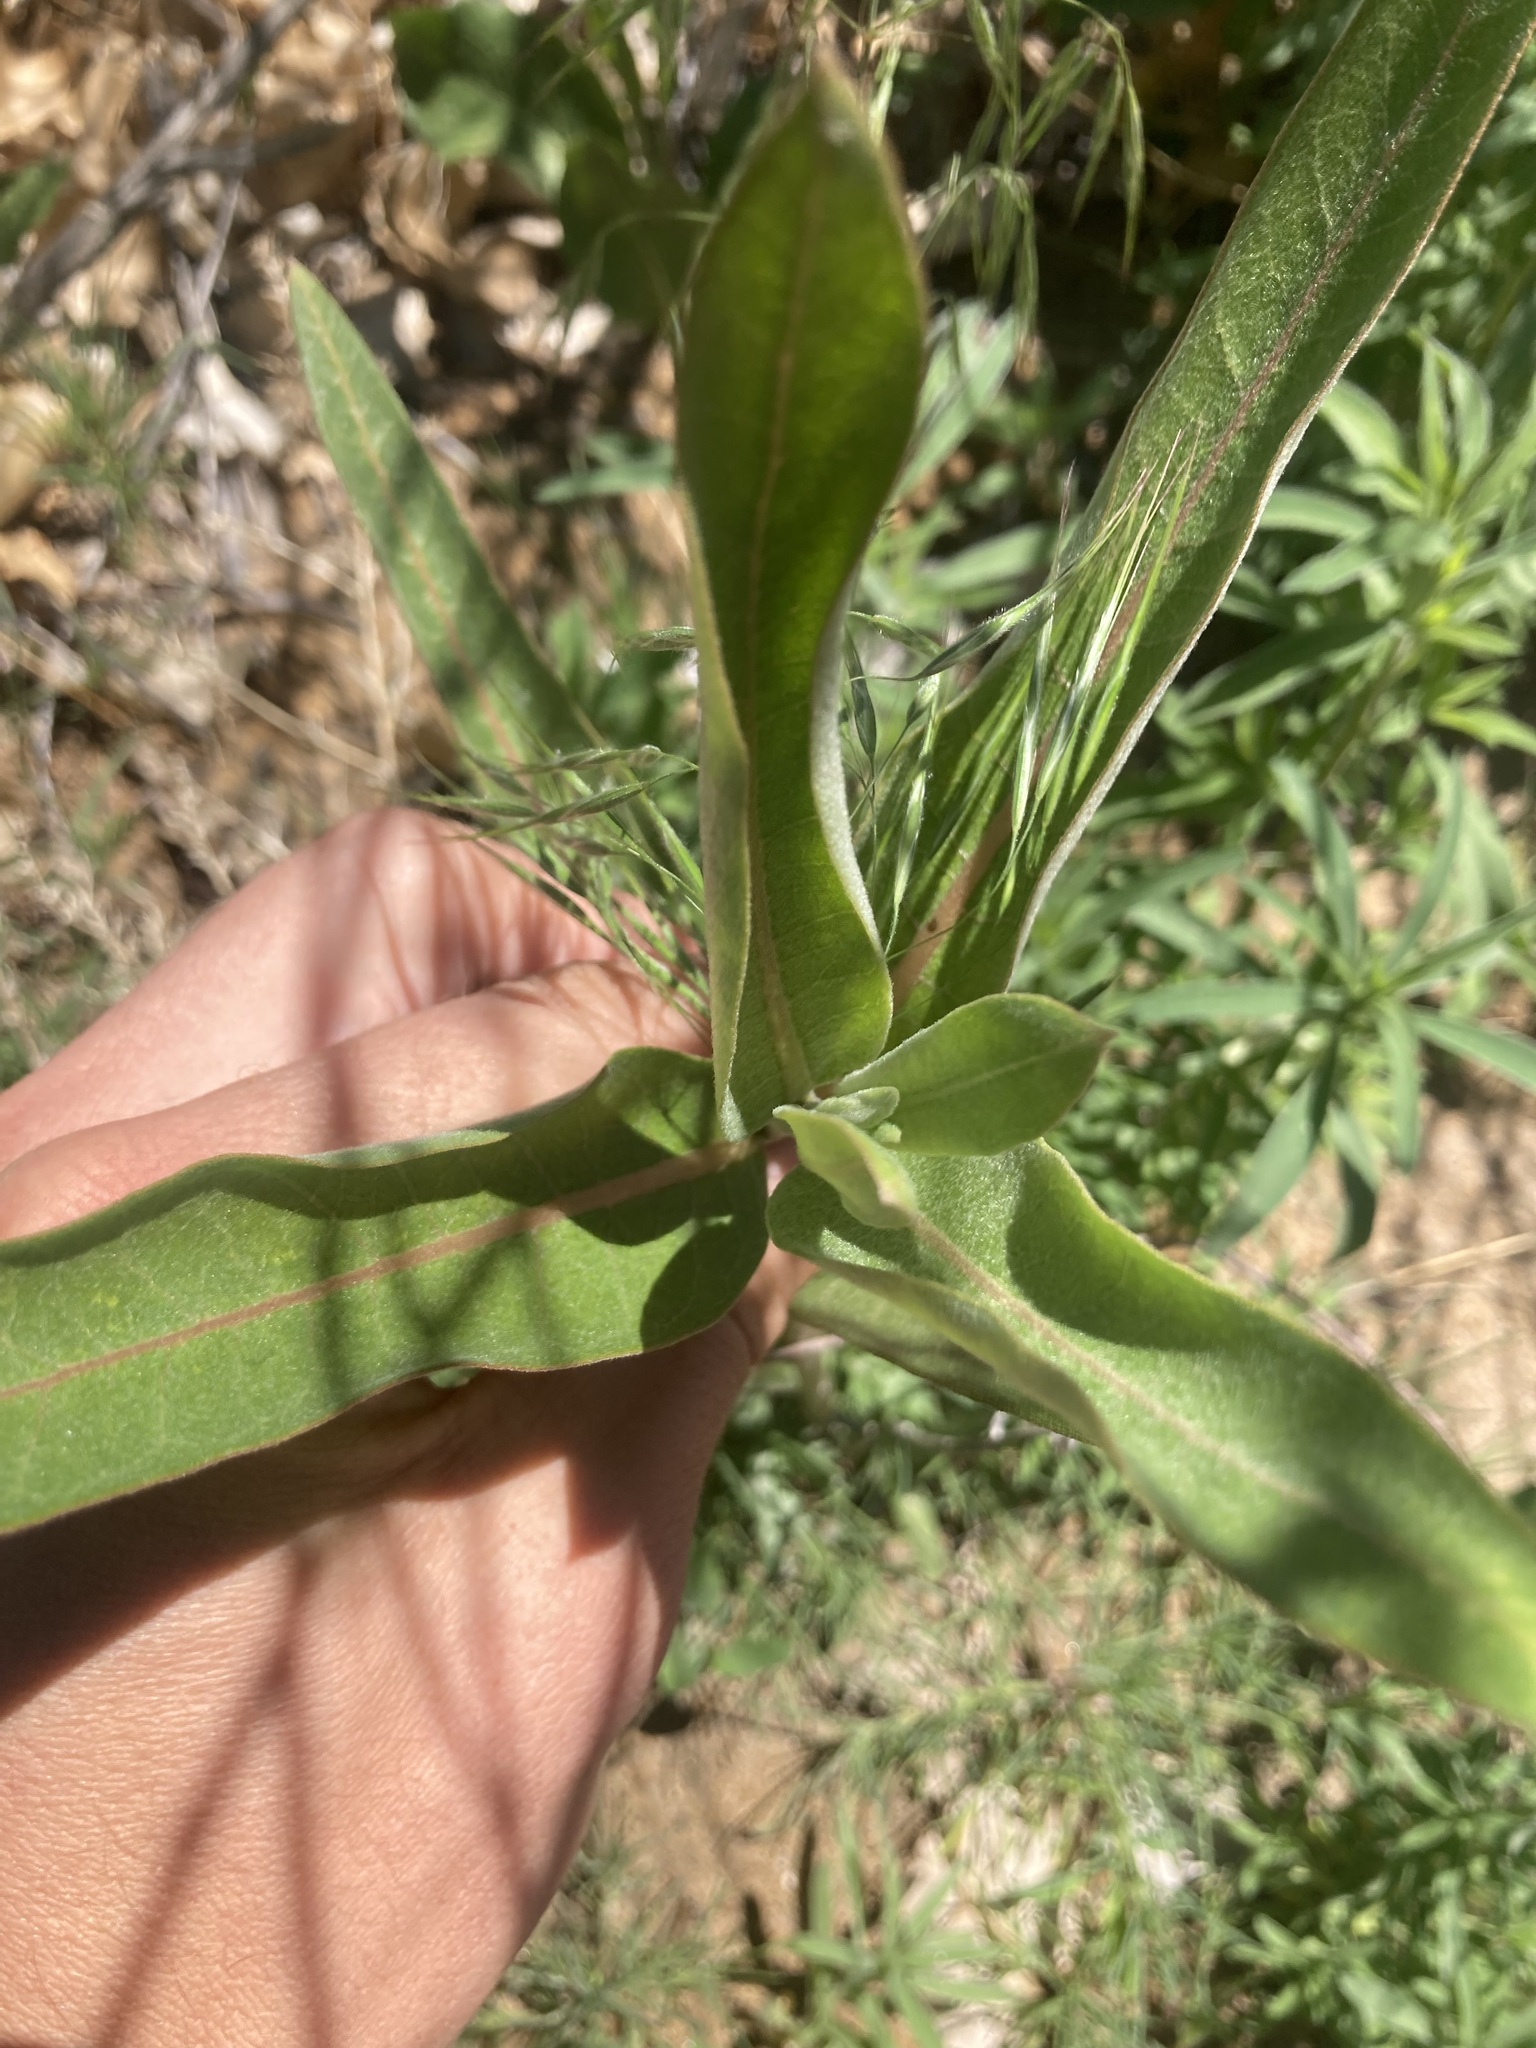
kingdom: Plantae
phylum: Tracheophyta
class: Magnoliopsida
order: Gentianales
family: Apocynaceae
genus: Asclepias
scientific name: Asclepias speciosa
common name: Showy milkweed
